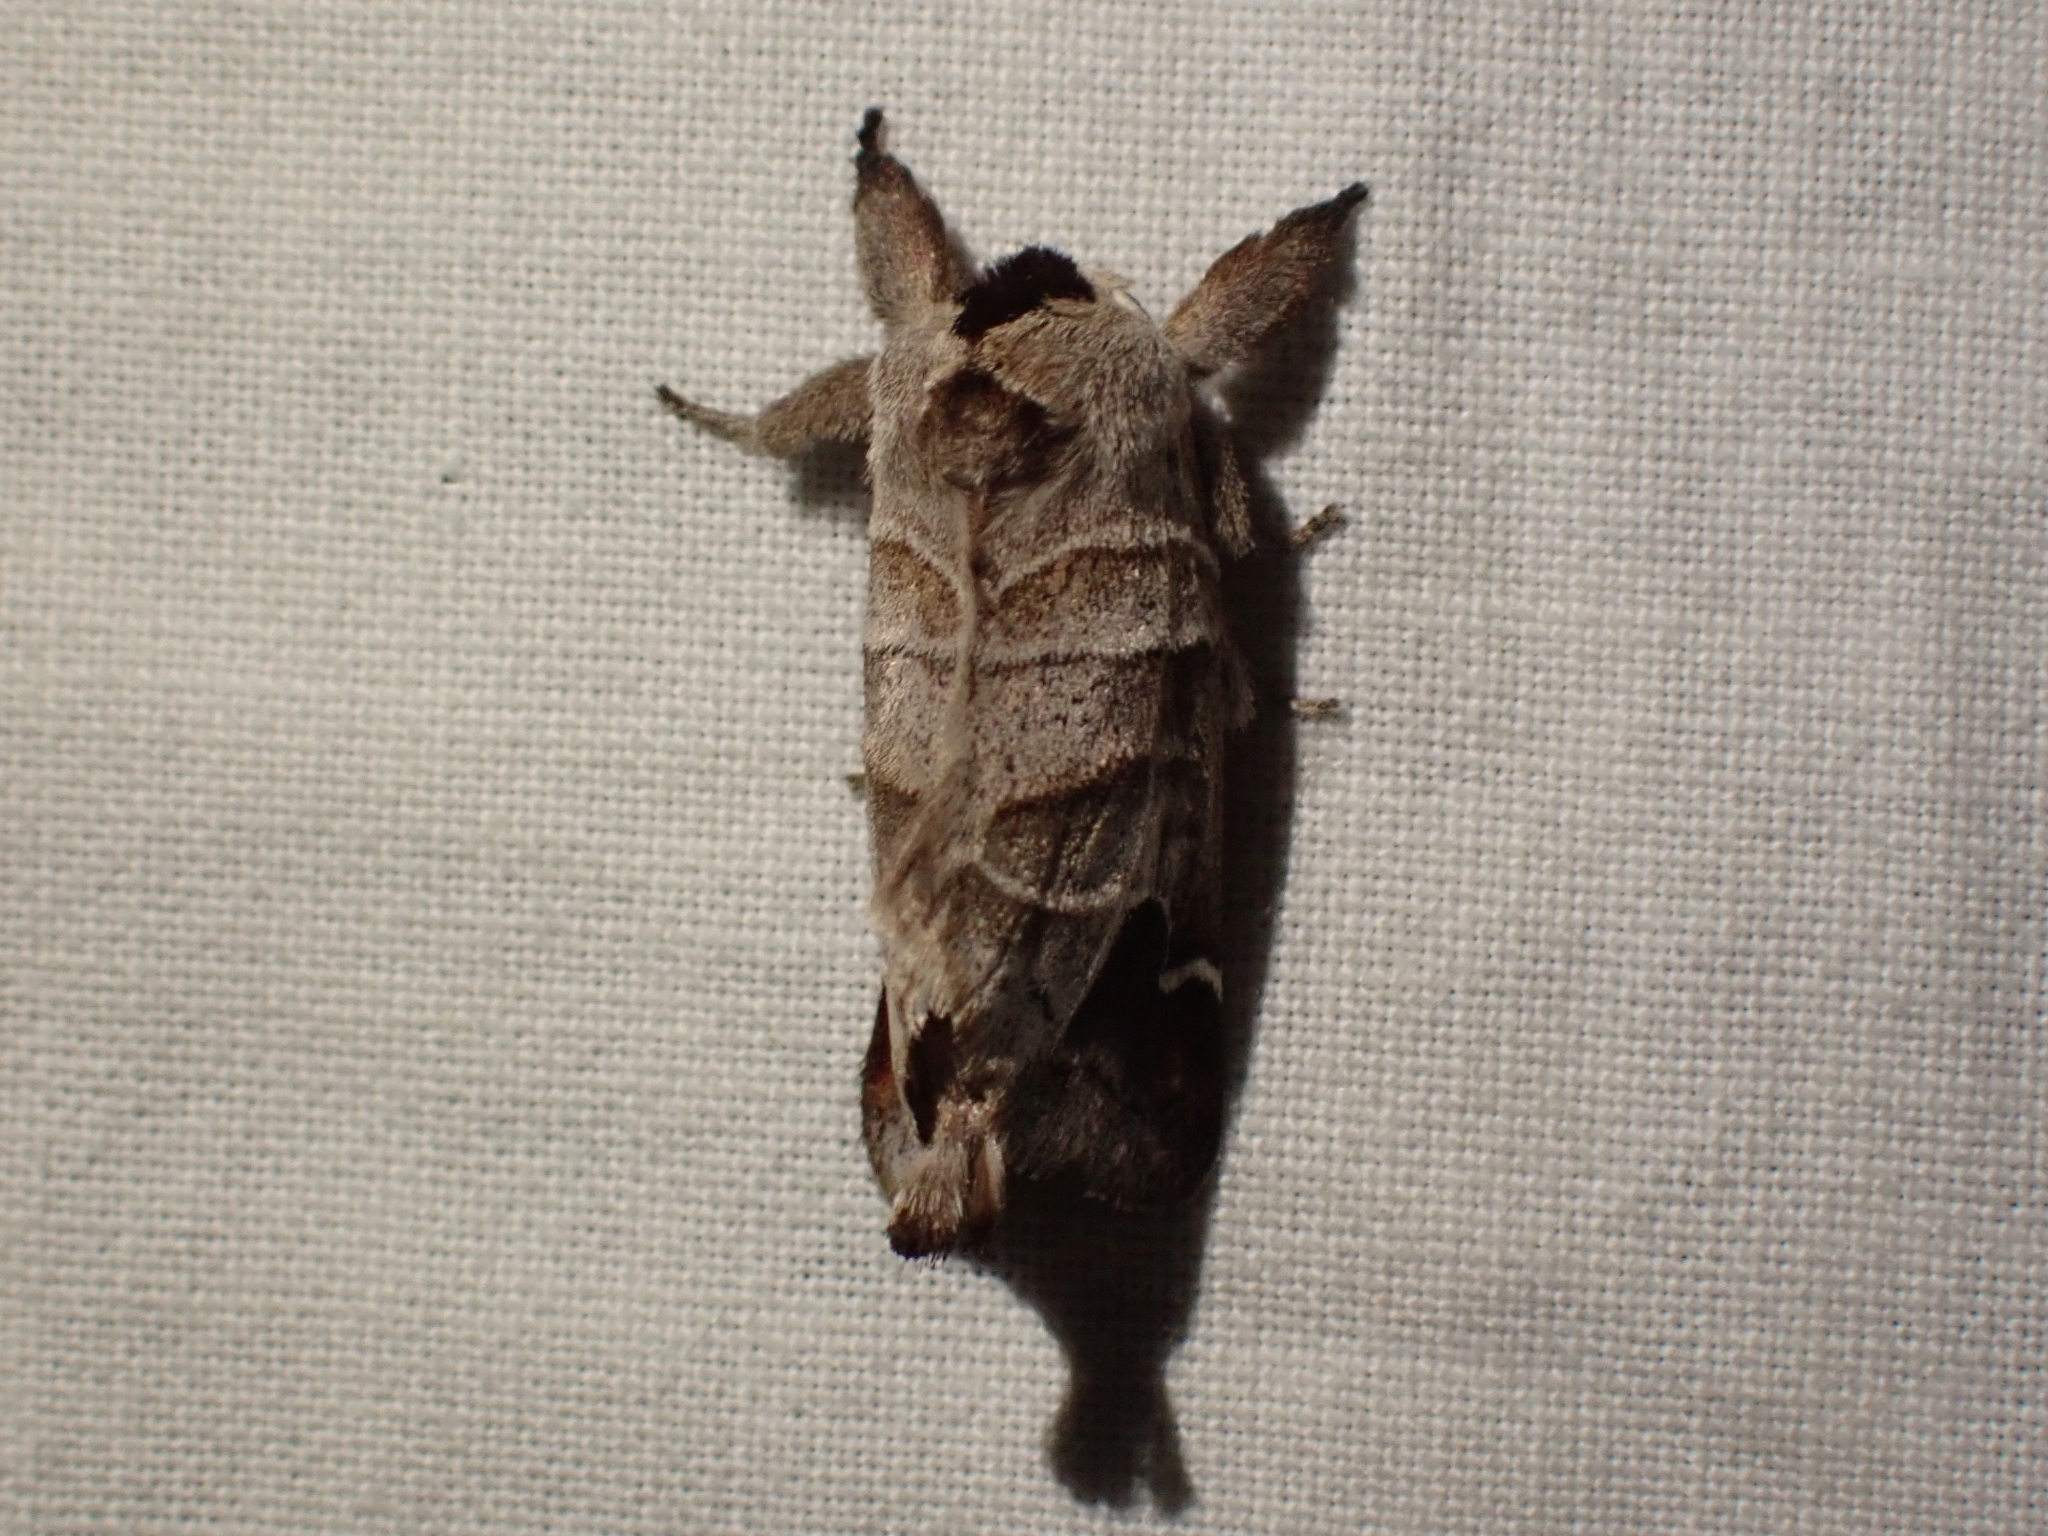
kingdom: Animalia
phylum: Arthropoda
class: Insecta
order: Lepidoptera
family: Notodontidae
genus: Clostera
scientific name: Clostera albosigma
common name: Sigmoid prominent
